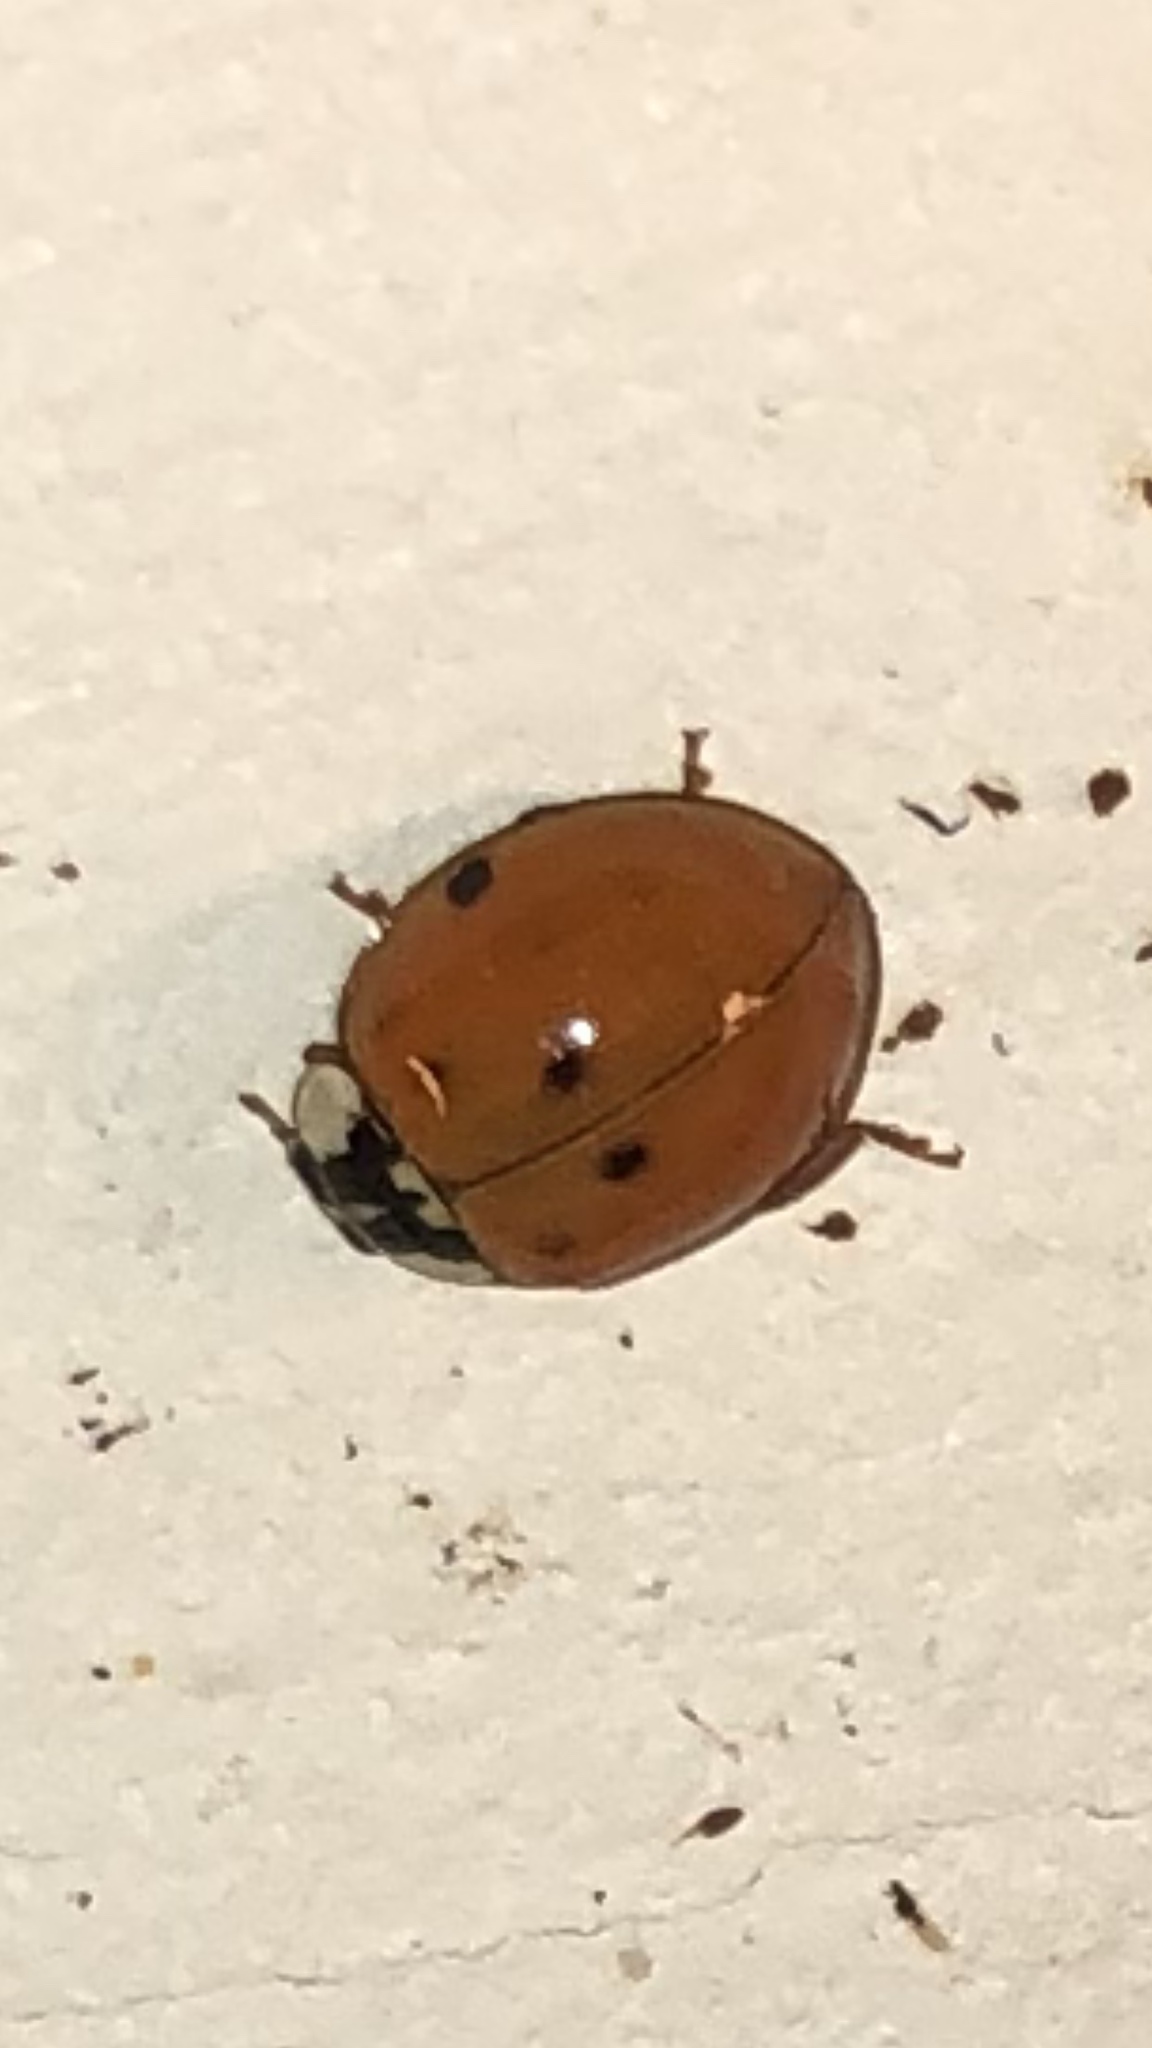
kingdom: Animalia
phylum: Arthropoda
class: Insecta
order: Coleoptera
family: Coccinellidae
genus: Harmonia
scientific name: Harmonia axyridis
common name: Harlequin ladybird
